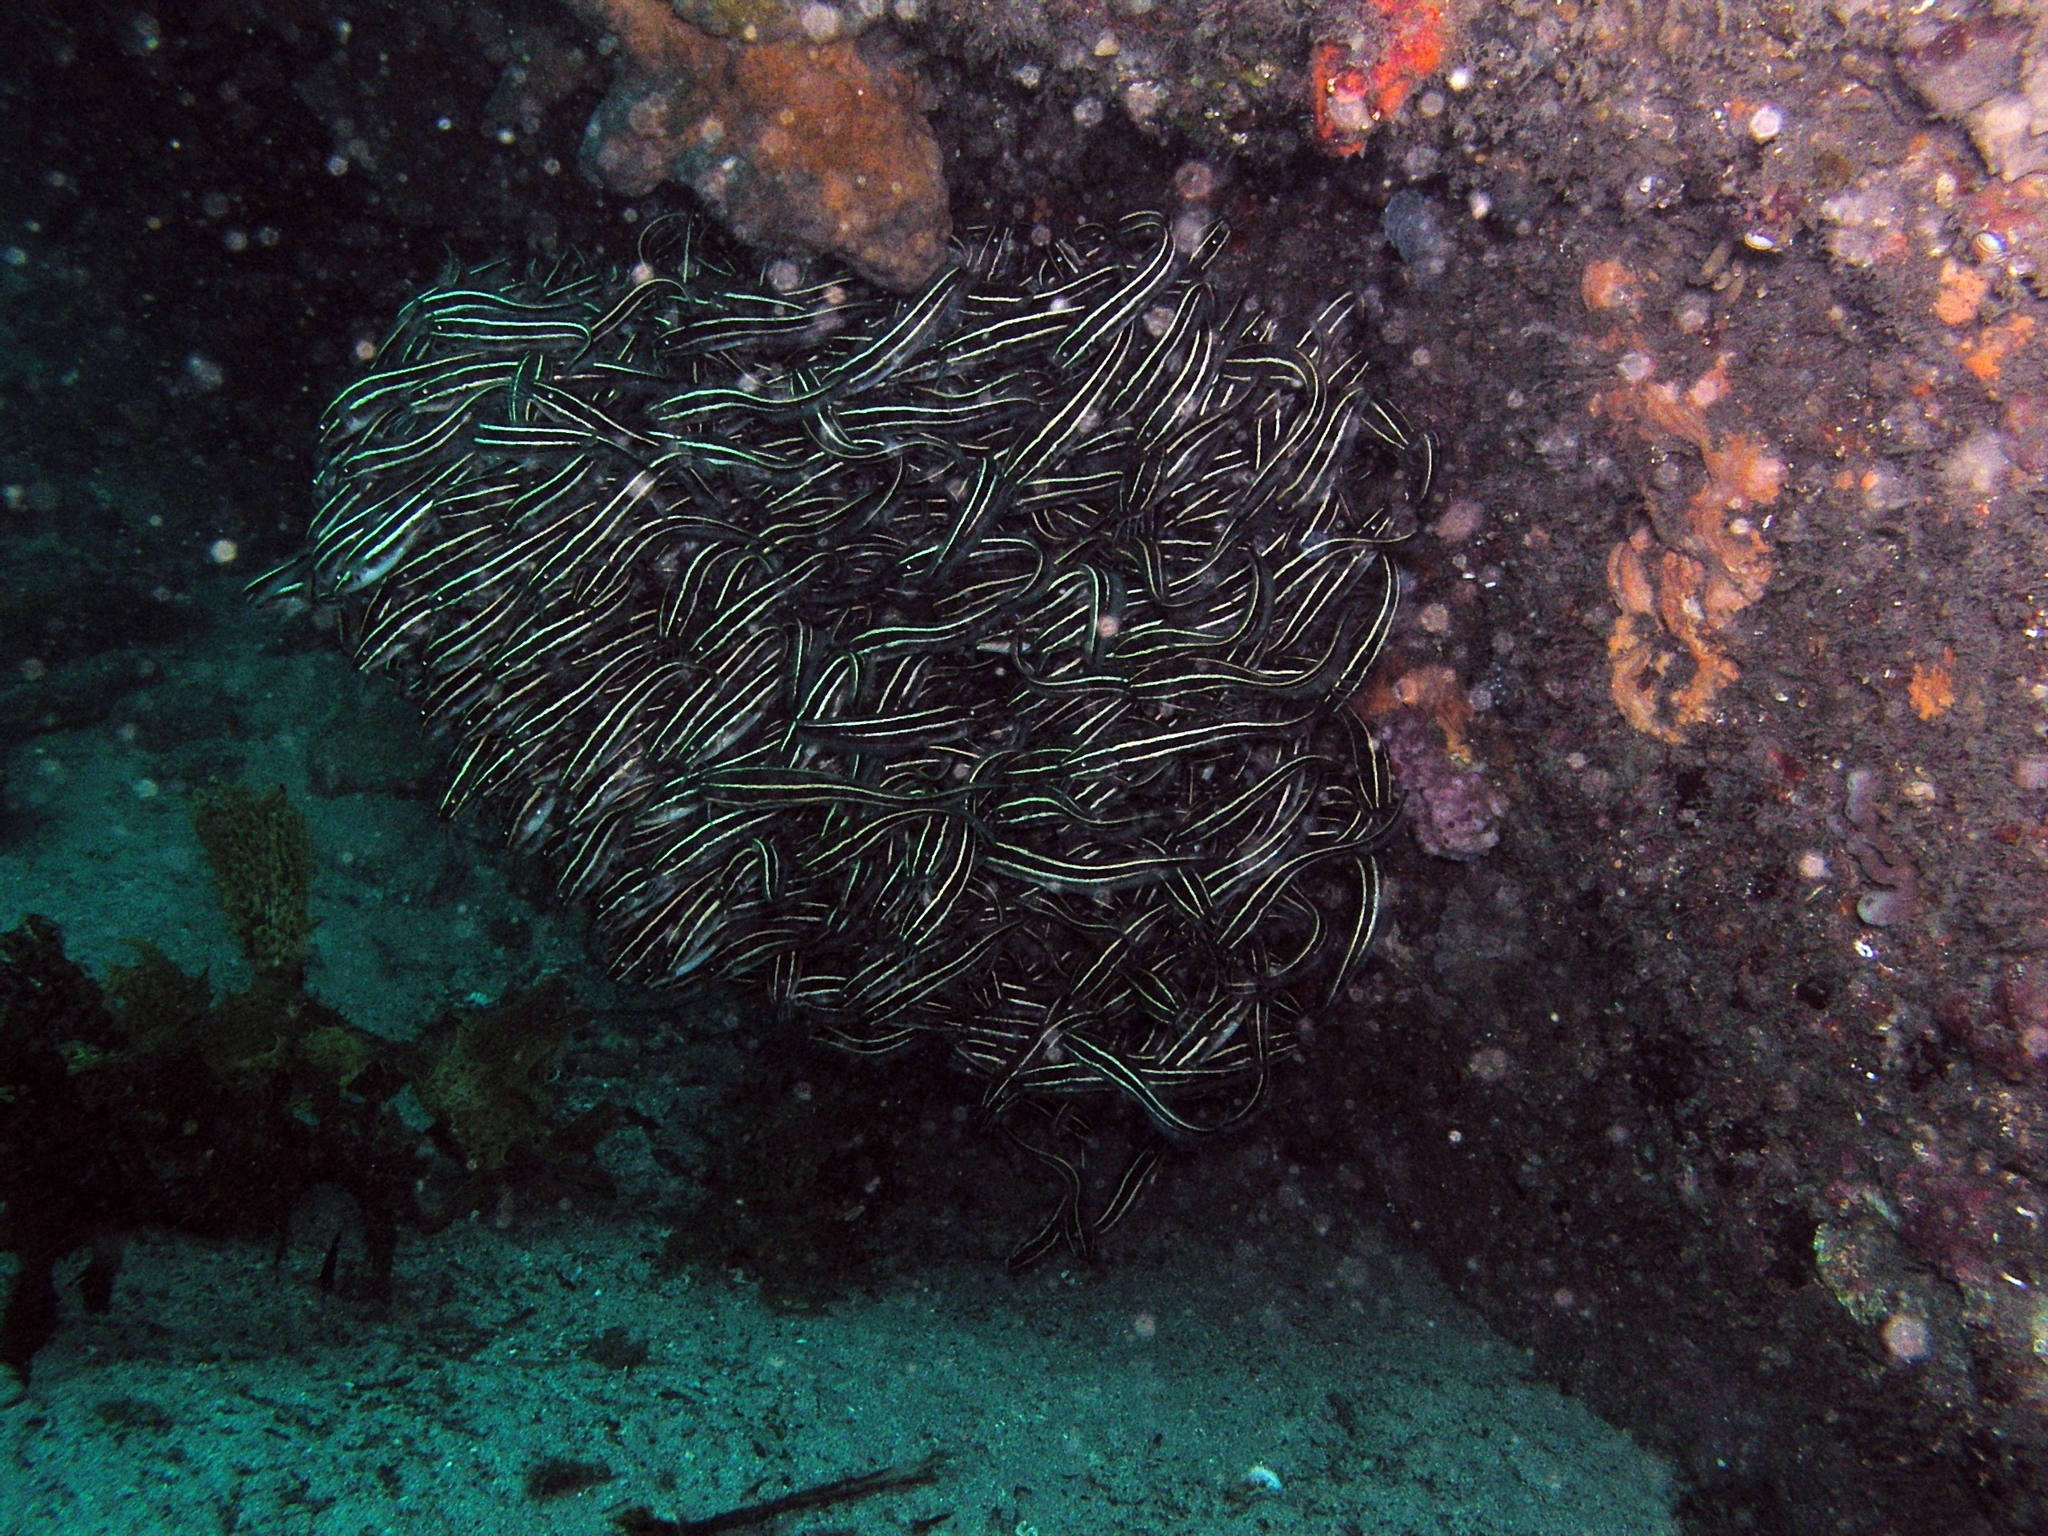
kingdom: Animalia
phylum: Chordata
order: Siluriformes
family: Plotosidae
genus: Plotosus
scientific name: Plotosus lineatus
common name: Striped eel catfish
